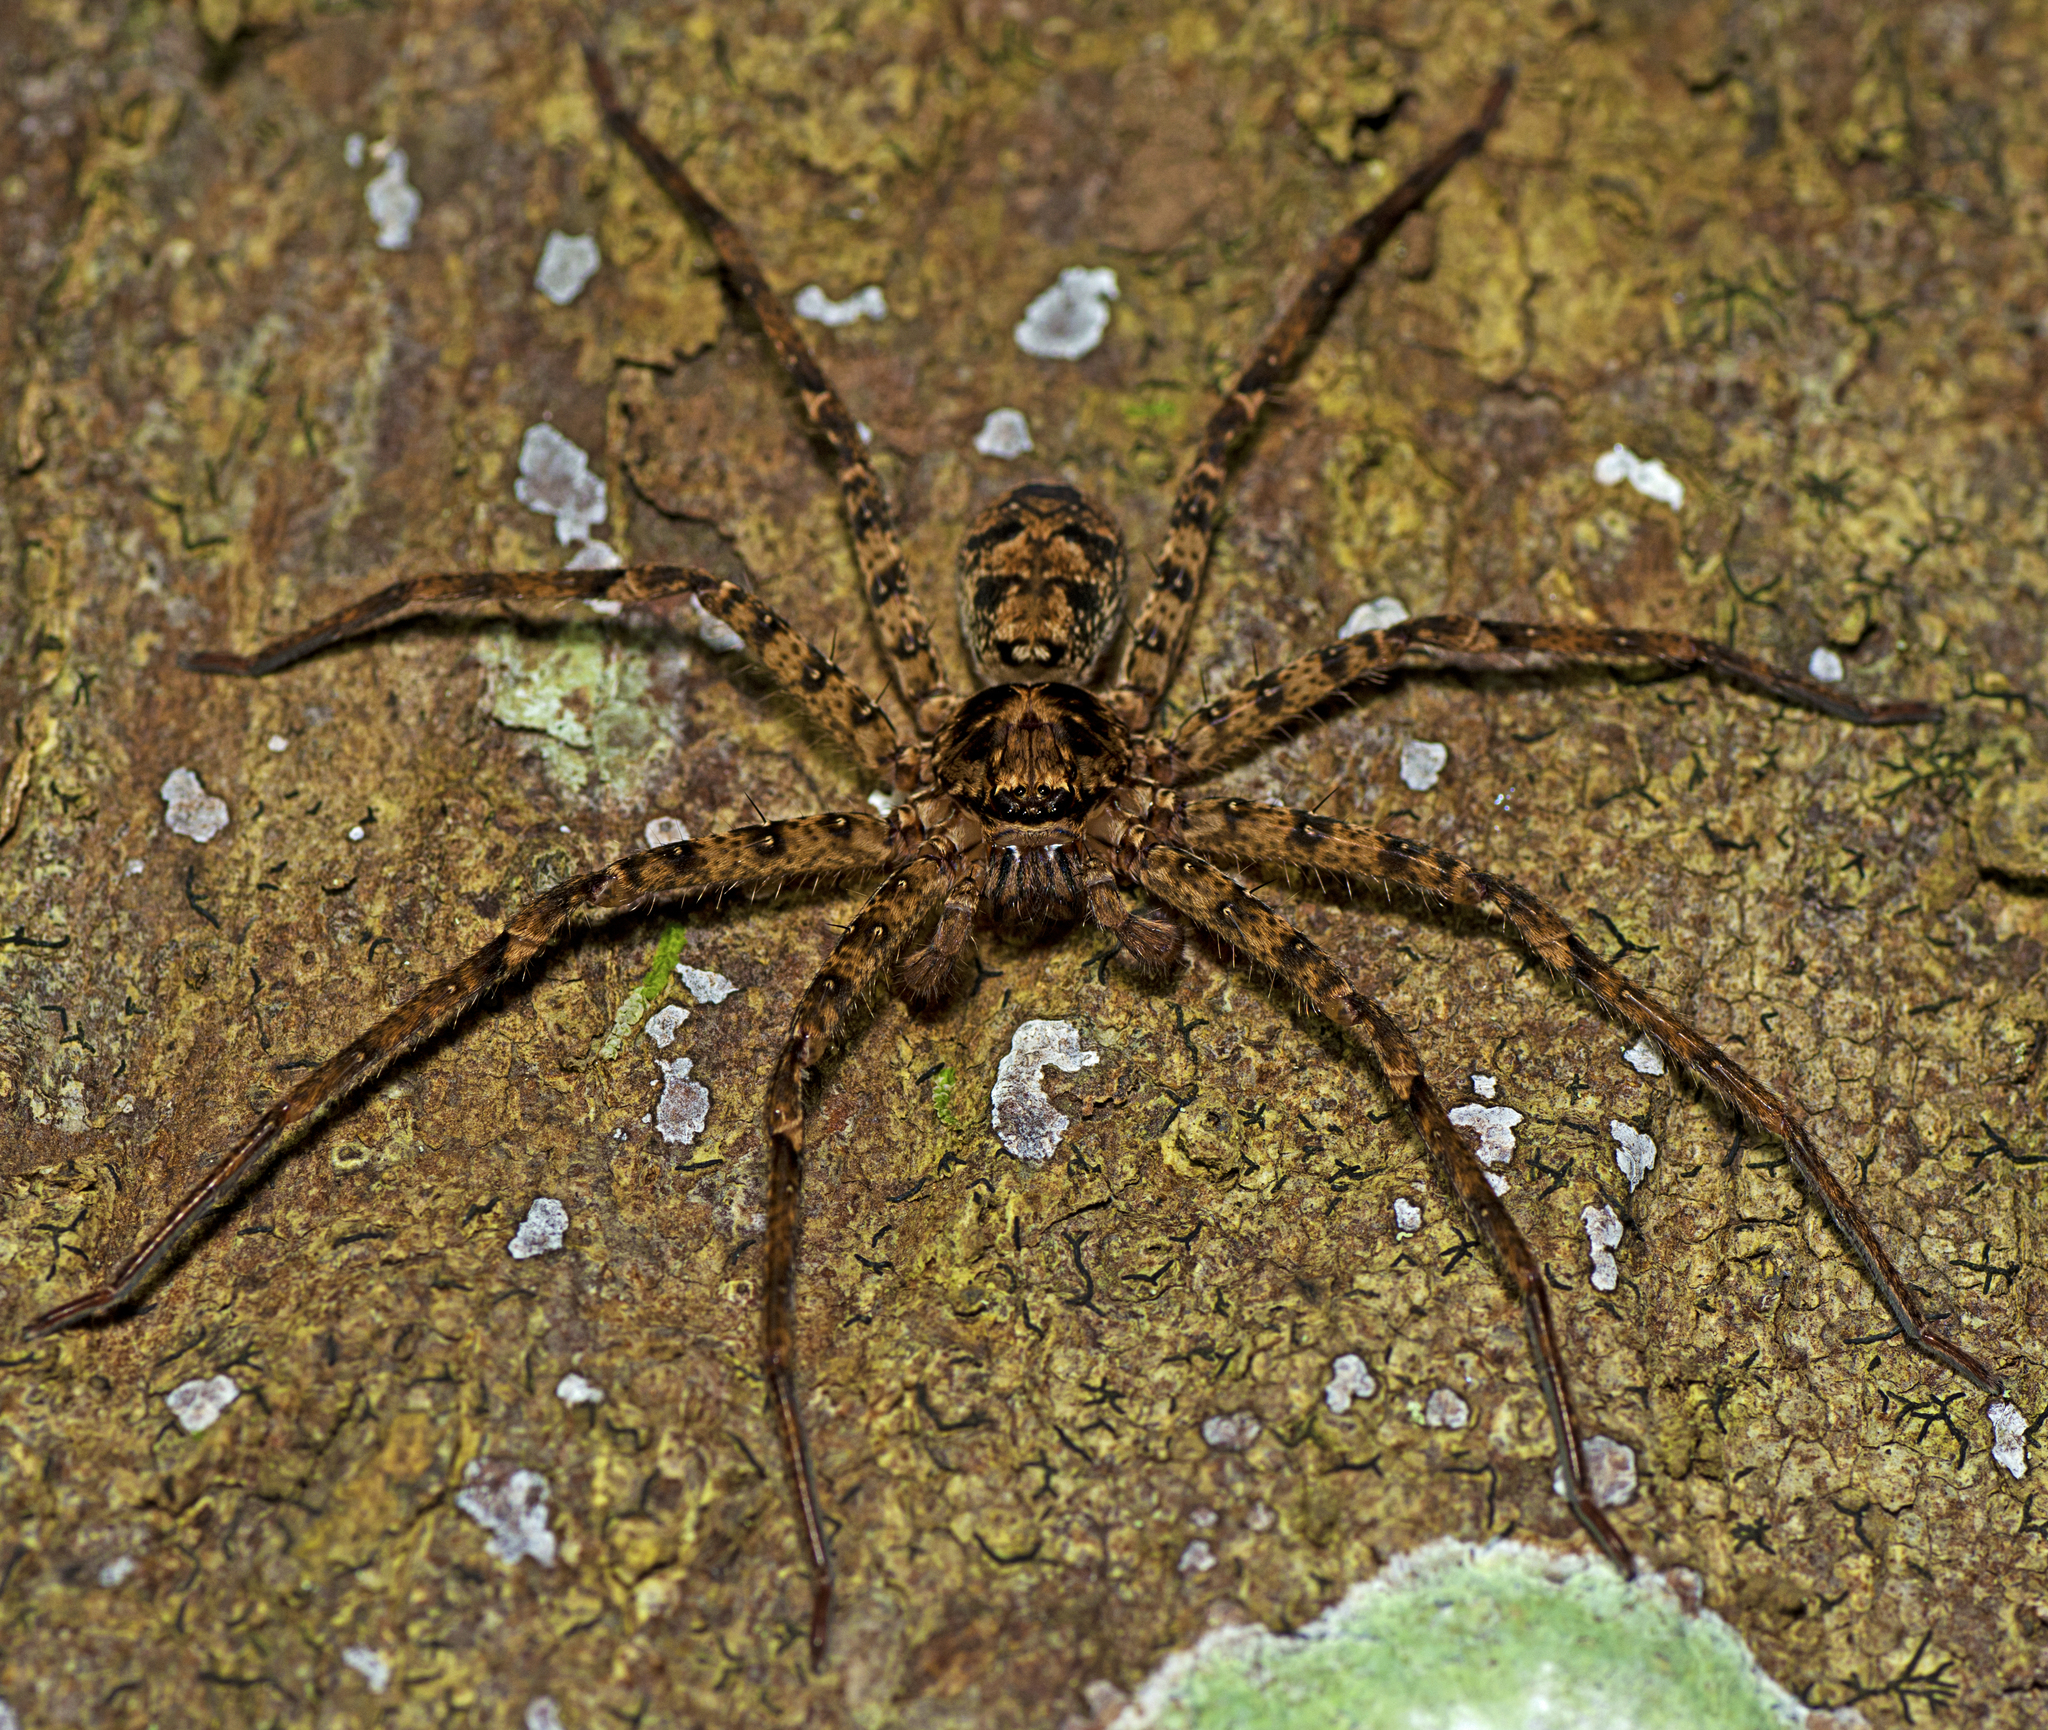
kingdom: Animalia
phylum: Arthropoda
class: Arachnida
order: Araneae
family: Sparassidae
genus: Heteropoda
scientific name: Heteropoda procera
